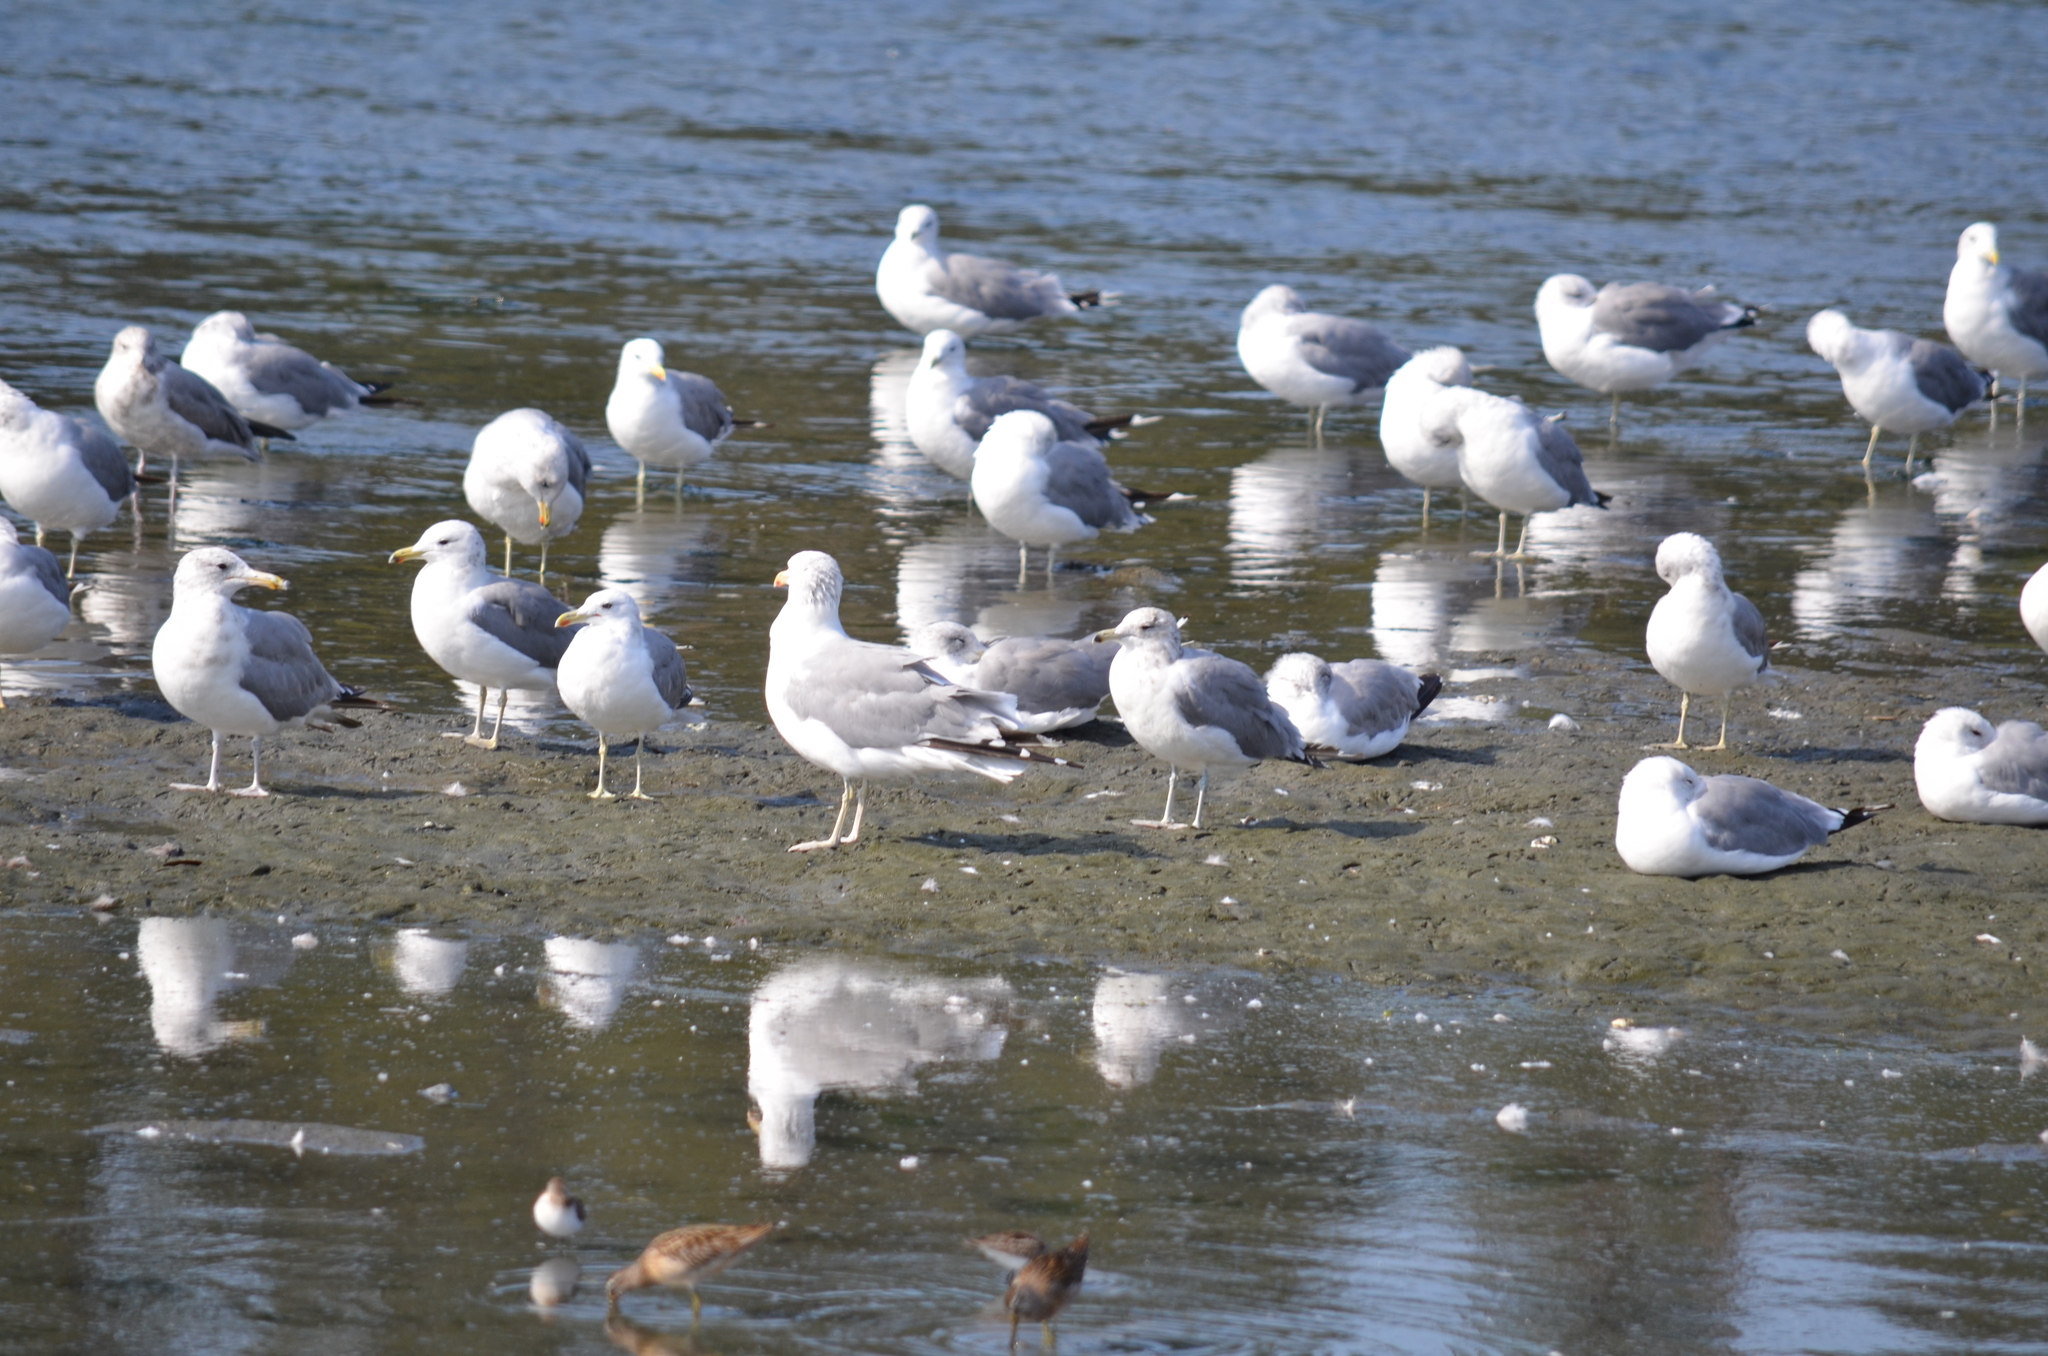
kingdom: Animalia
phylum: Chordata
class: Aves
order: Charadriiformes
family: Laridae
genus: Larus
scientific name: Larus californicus
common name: California gull
